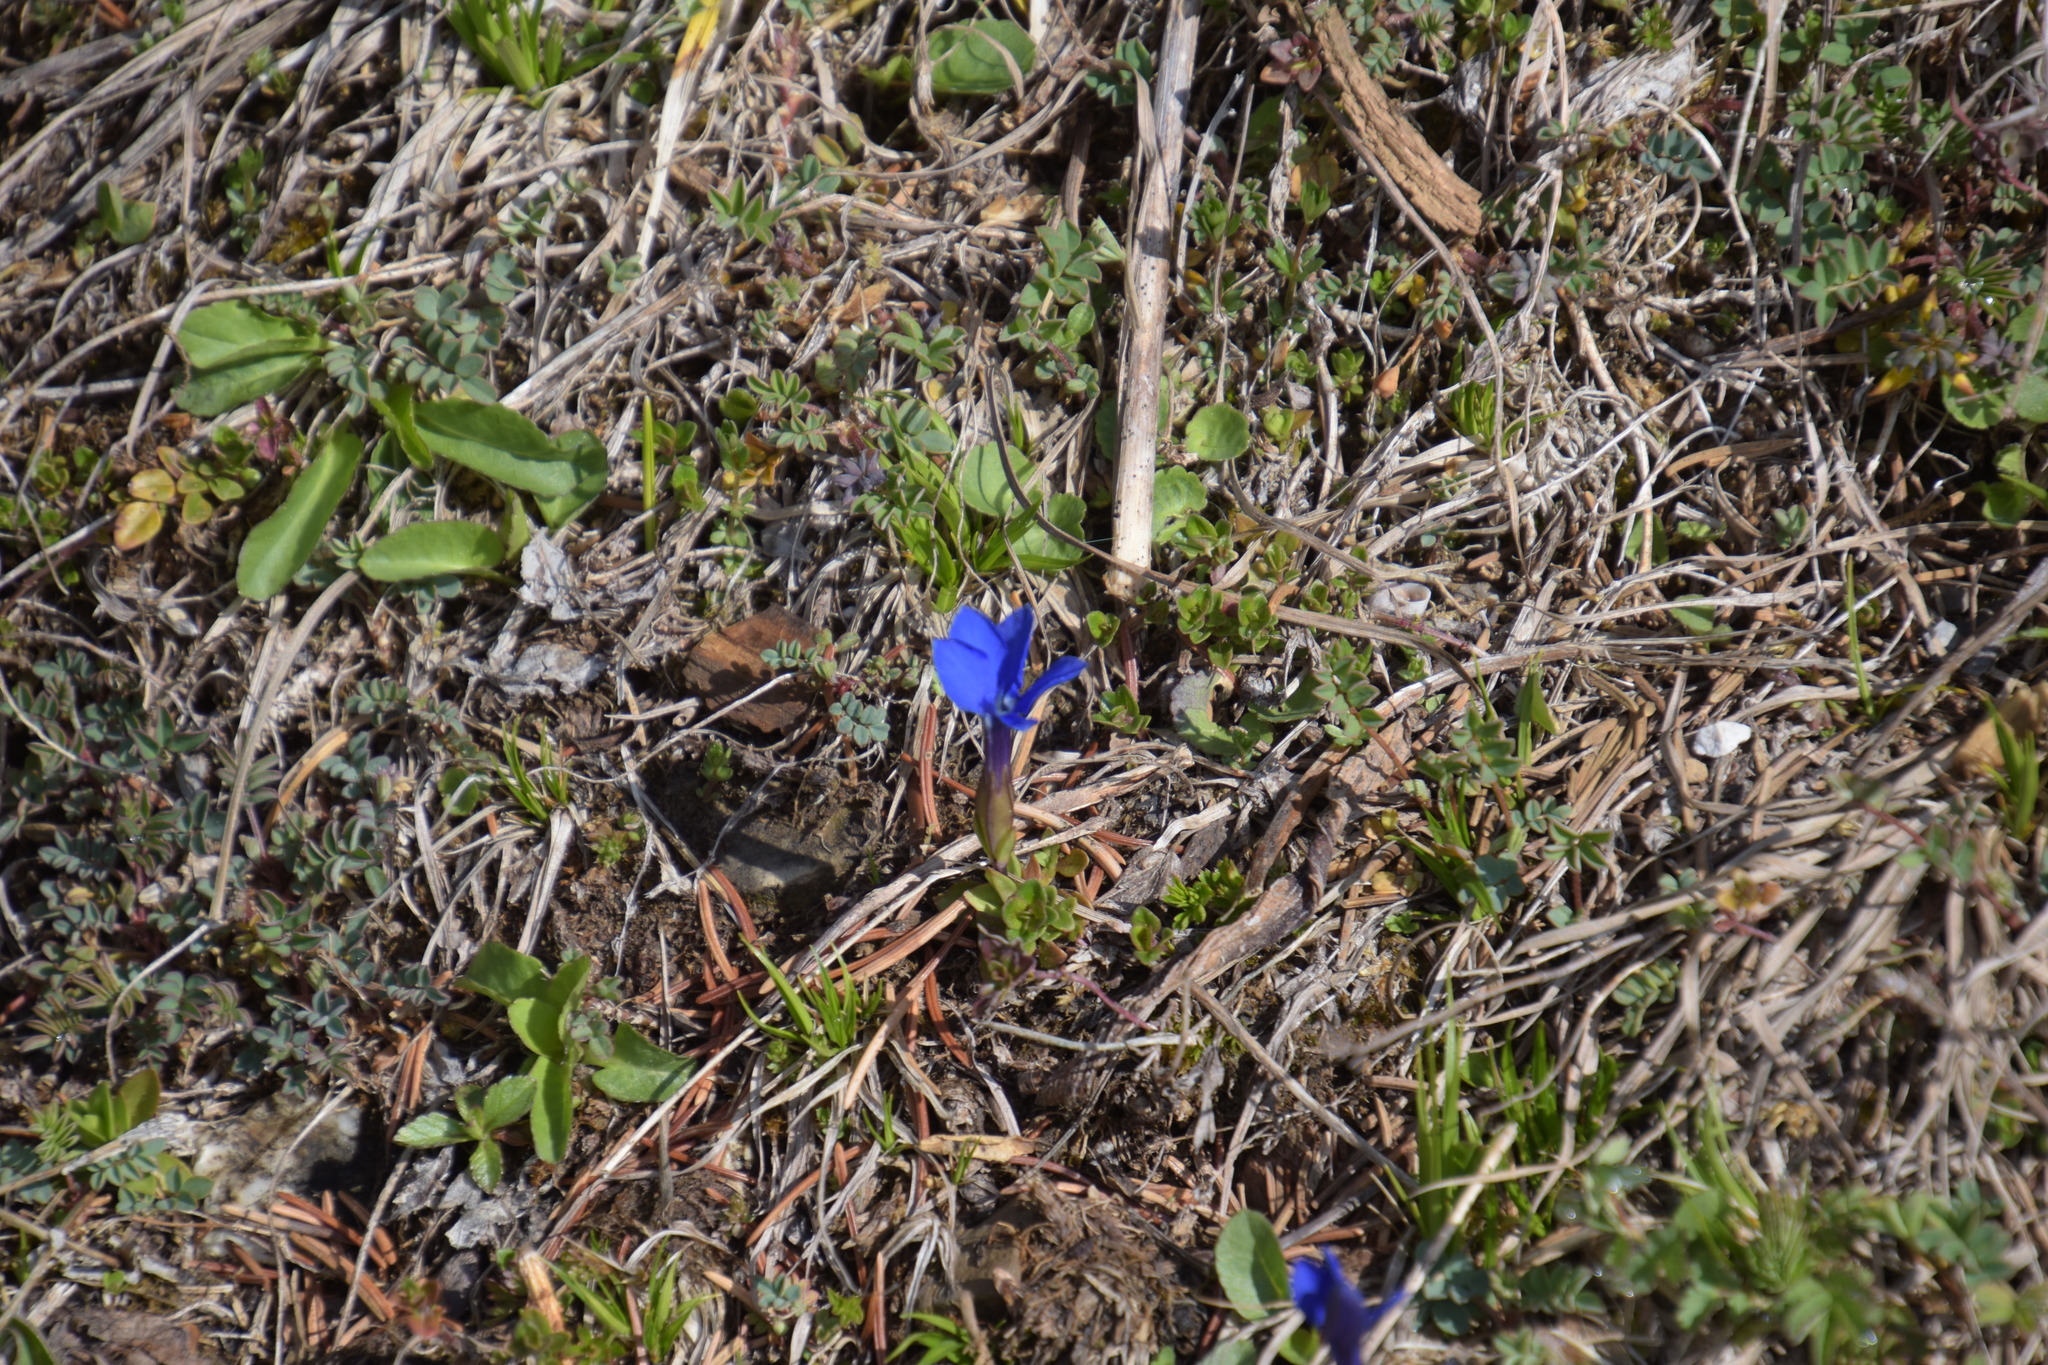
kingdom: Plantae
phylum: Tracheophyta
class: Magnoliopsida
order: Gentianales
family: Gentianaceae
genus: Gentiana
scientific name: Gentiana verna
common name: Spring gentian
